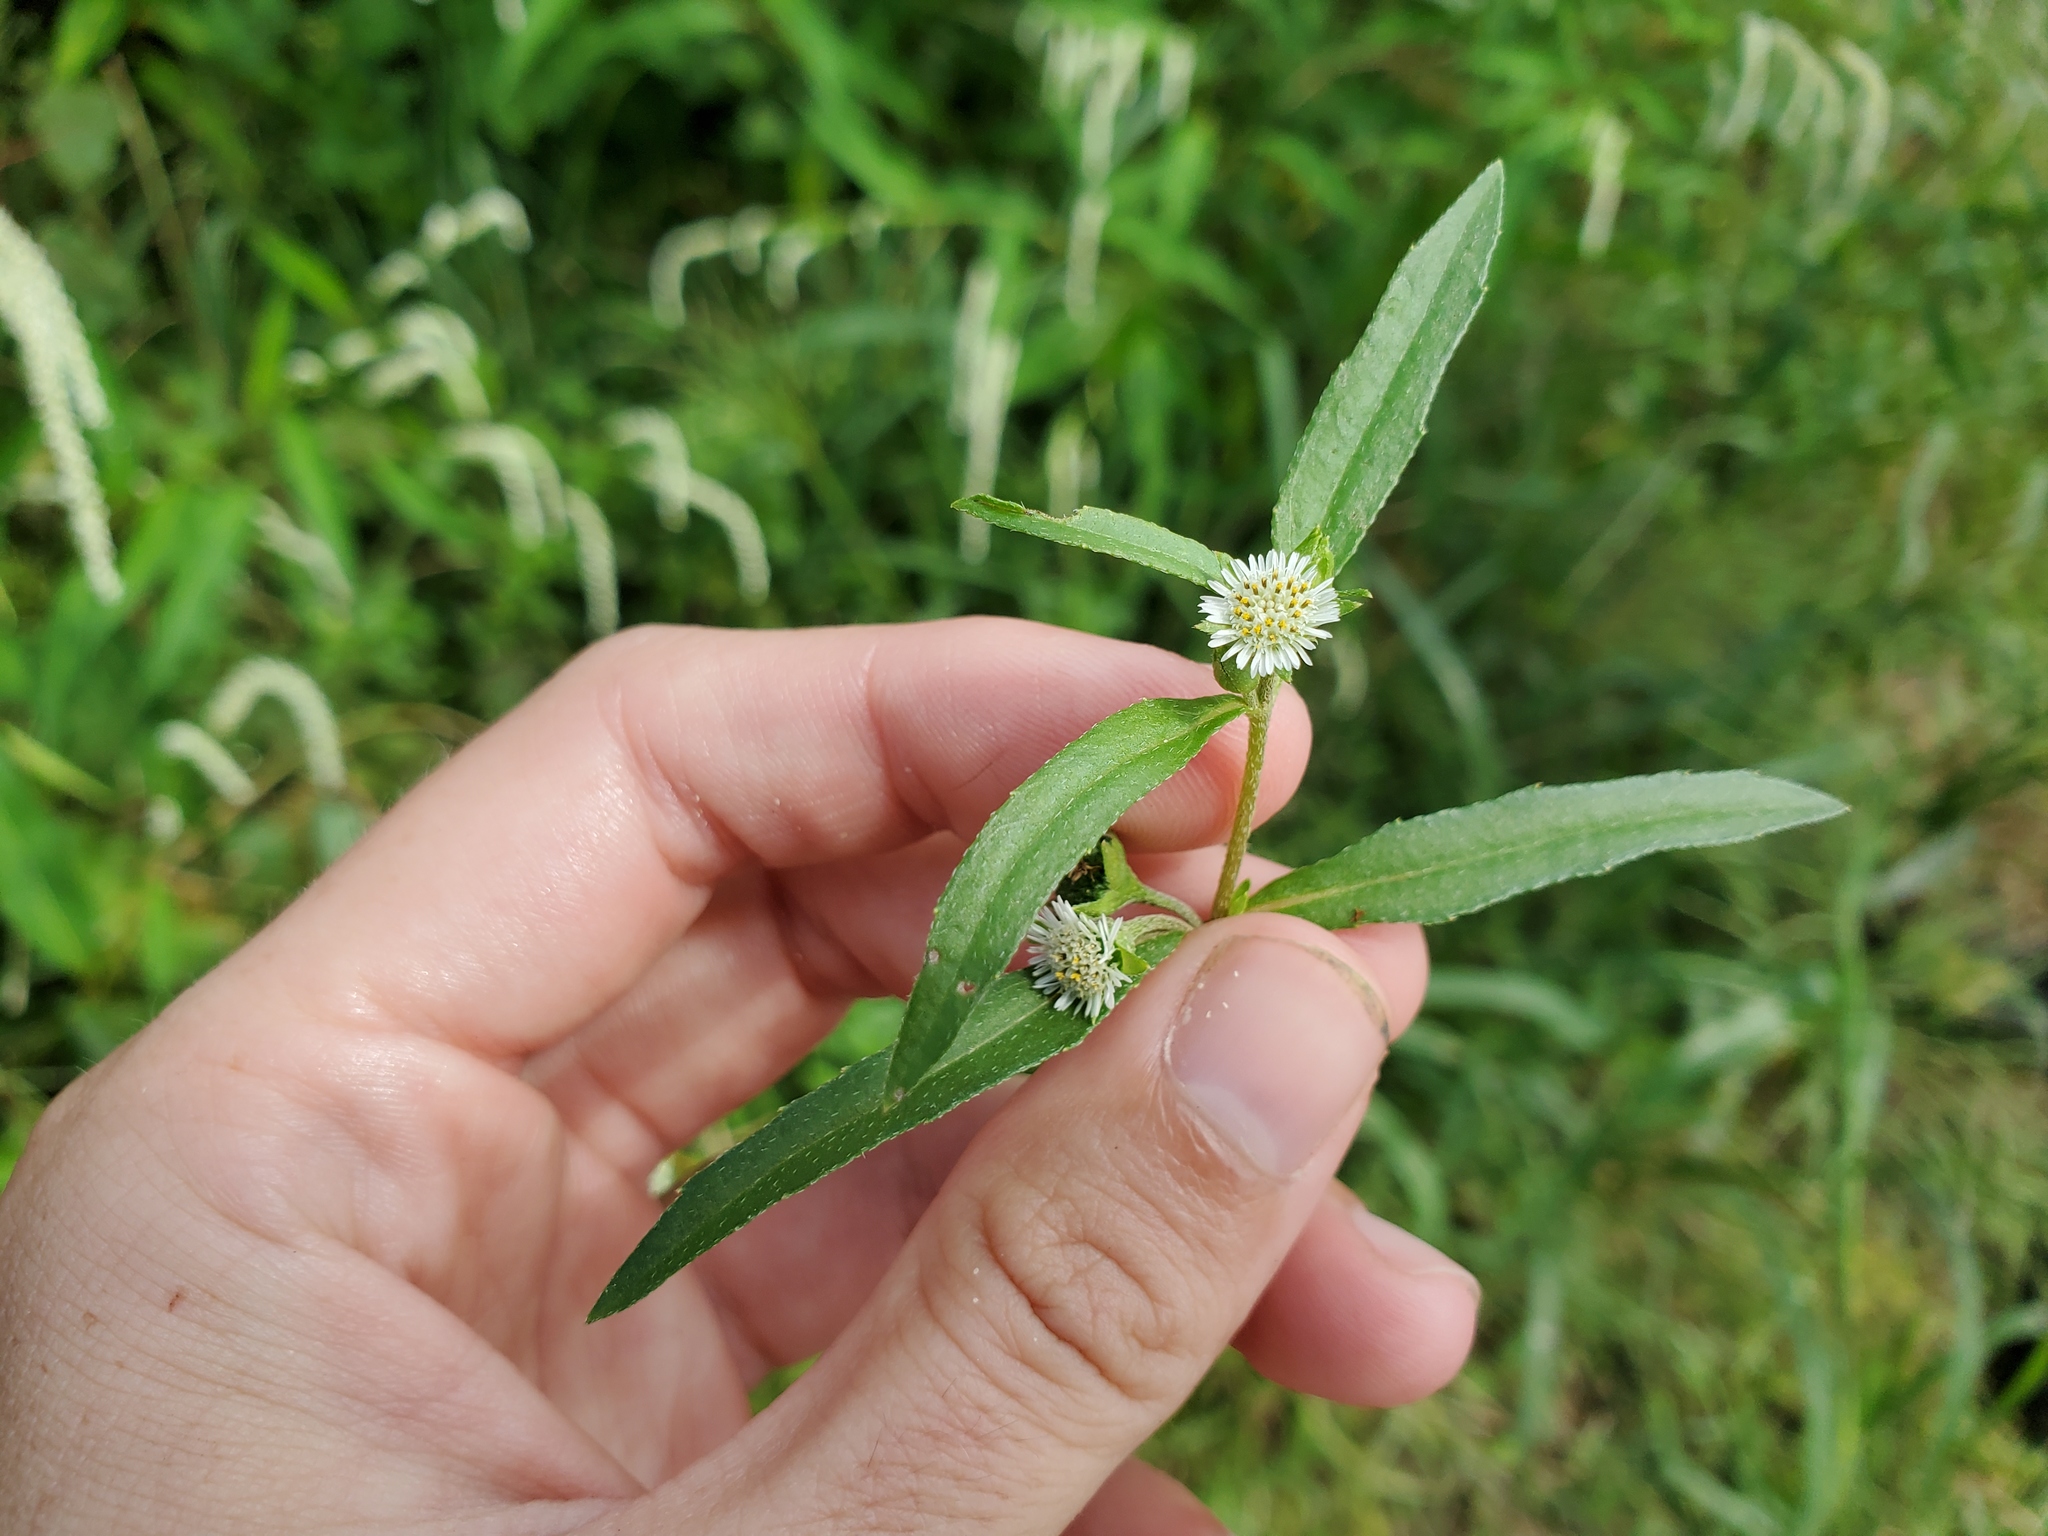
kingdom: Plantae
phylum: Tracheophyta
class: Magnoliopsida
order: Asterales
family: Asteraceae
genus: Eclipta
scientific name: Eclipta prostrata
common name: False daisy
